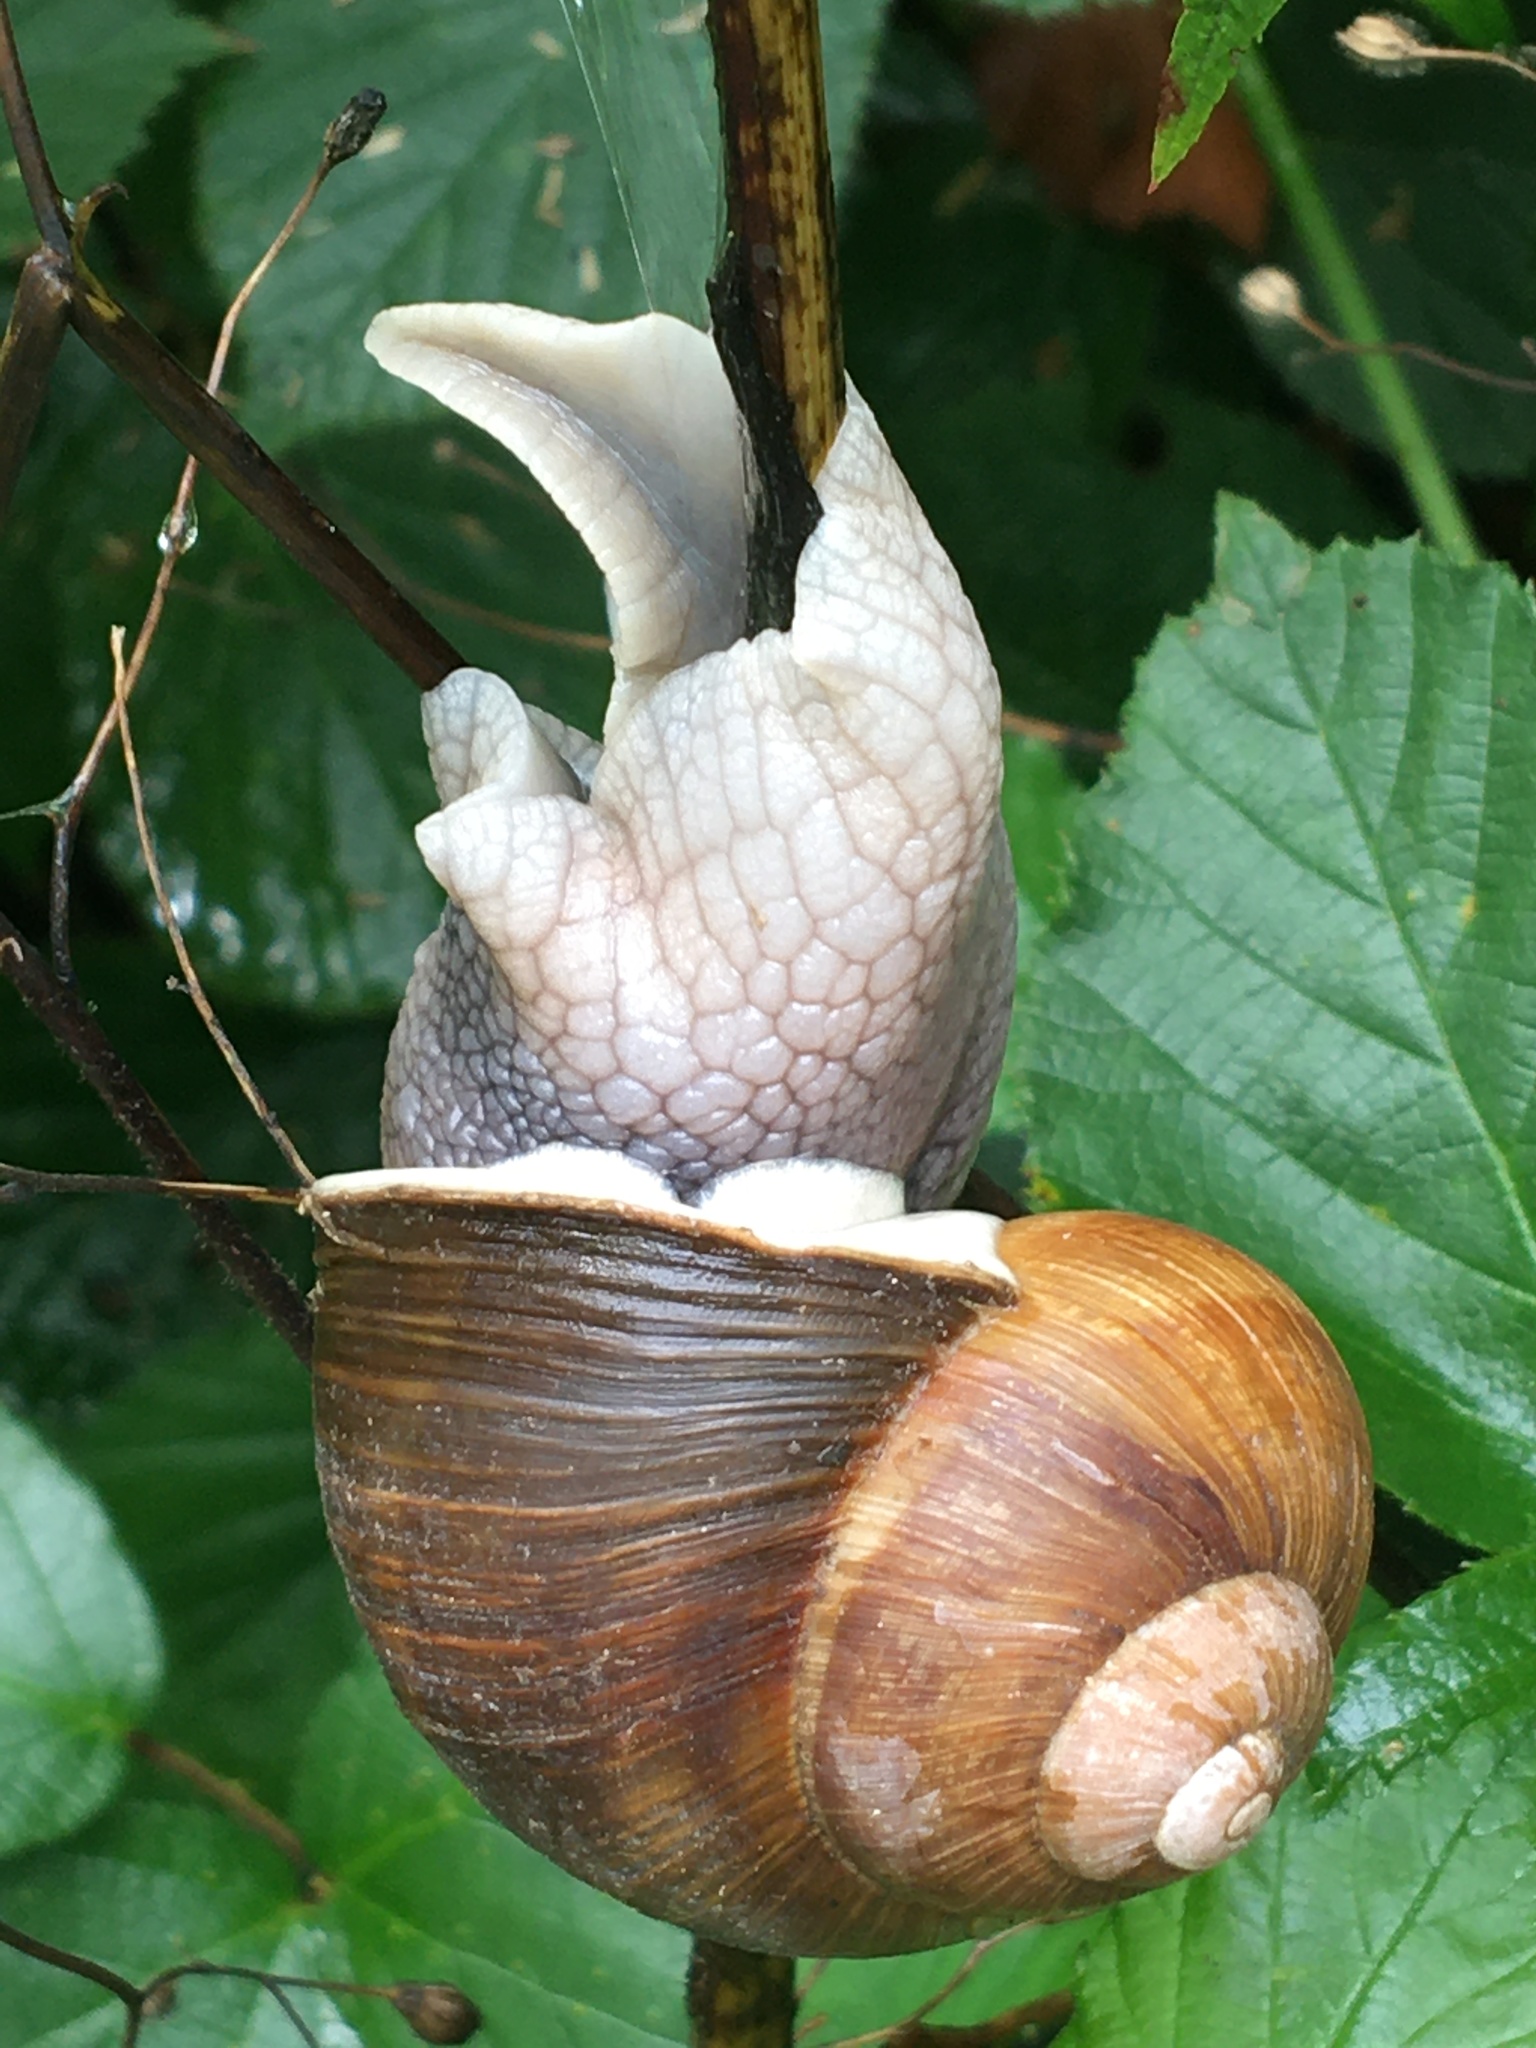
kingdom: Animalia
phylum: Mollusca
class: Gastropoda
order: Stylommatophora
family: Helicidae
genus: Helix
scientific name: Helix pomatia
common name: Roman snail
